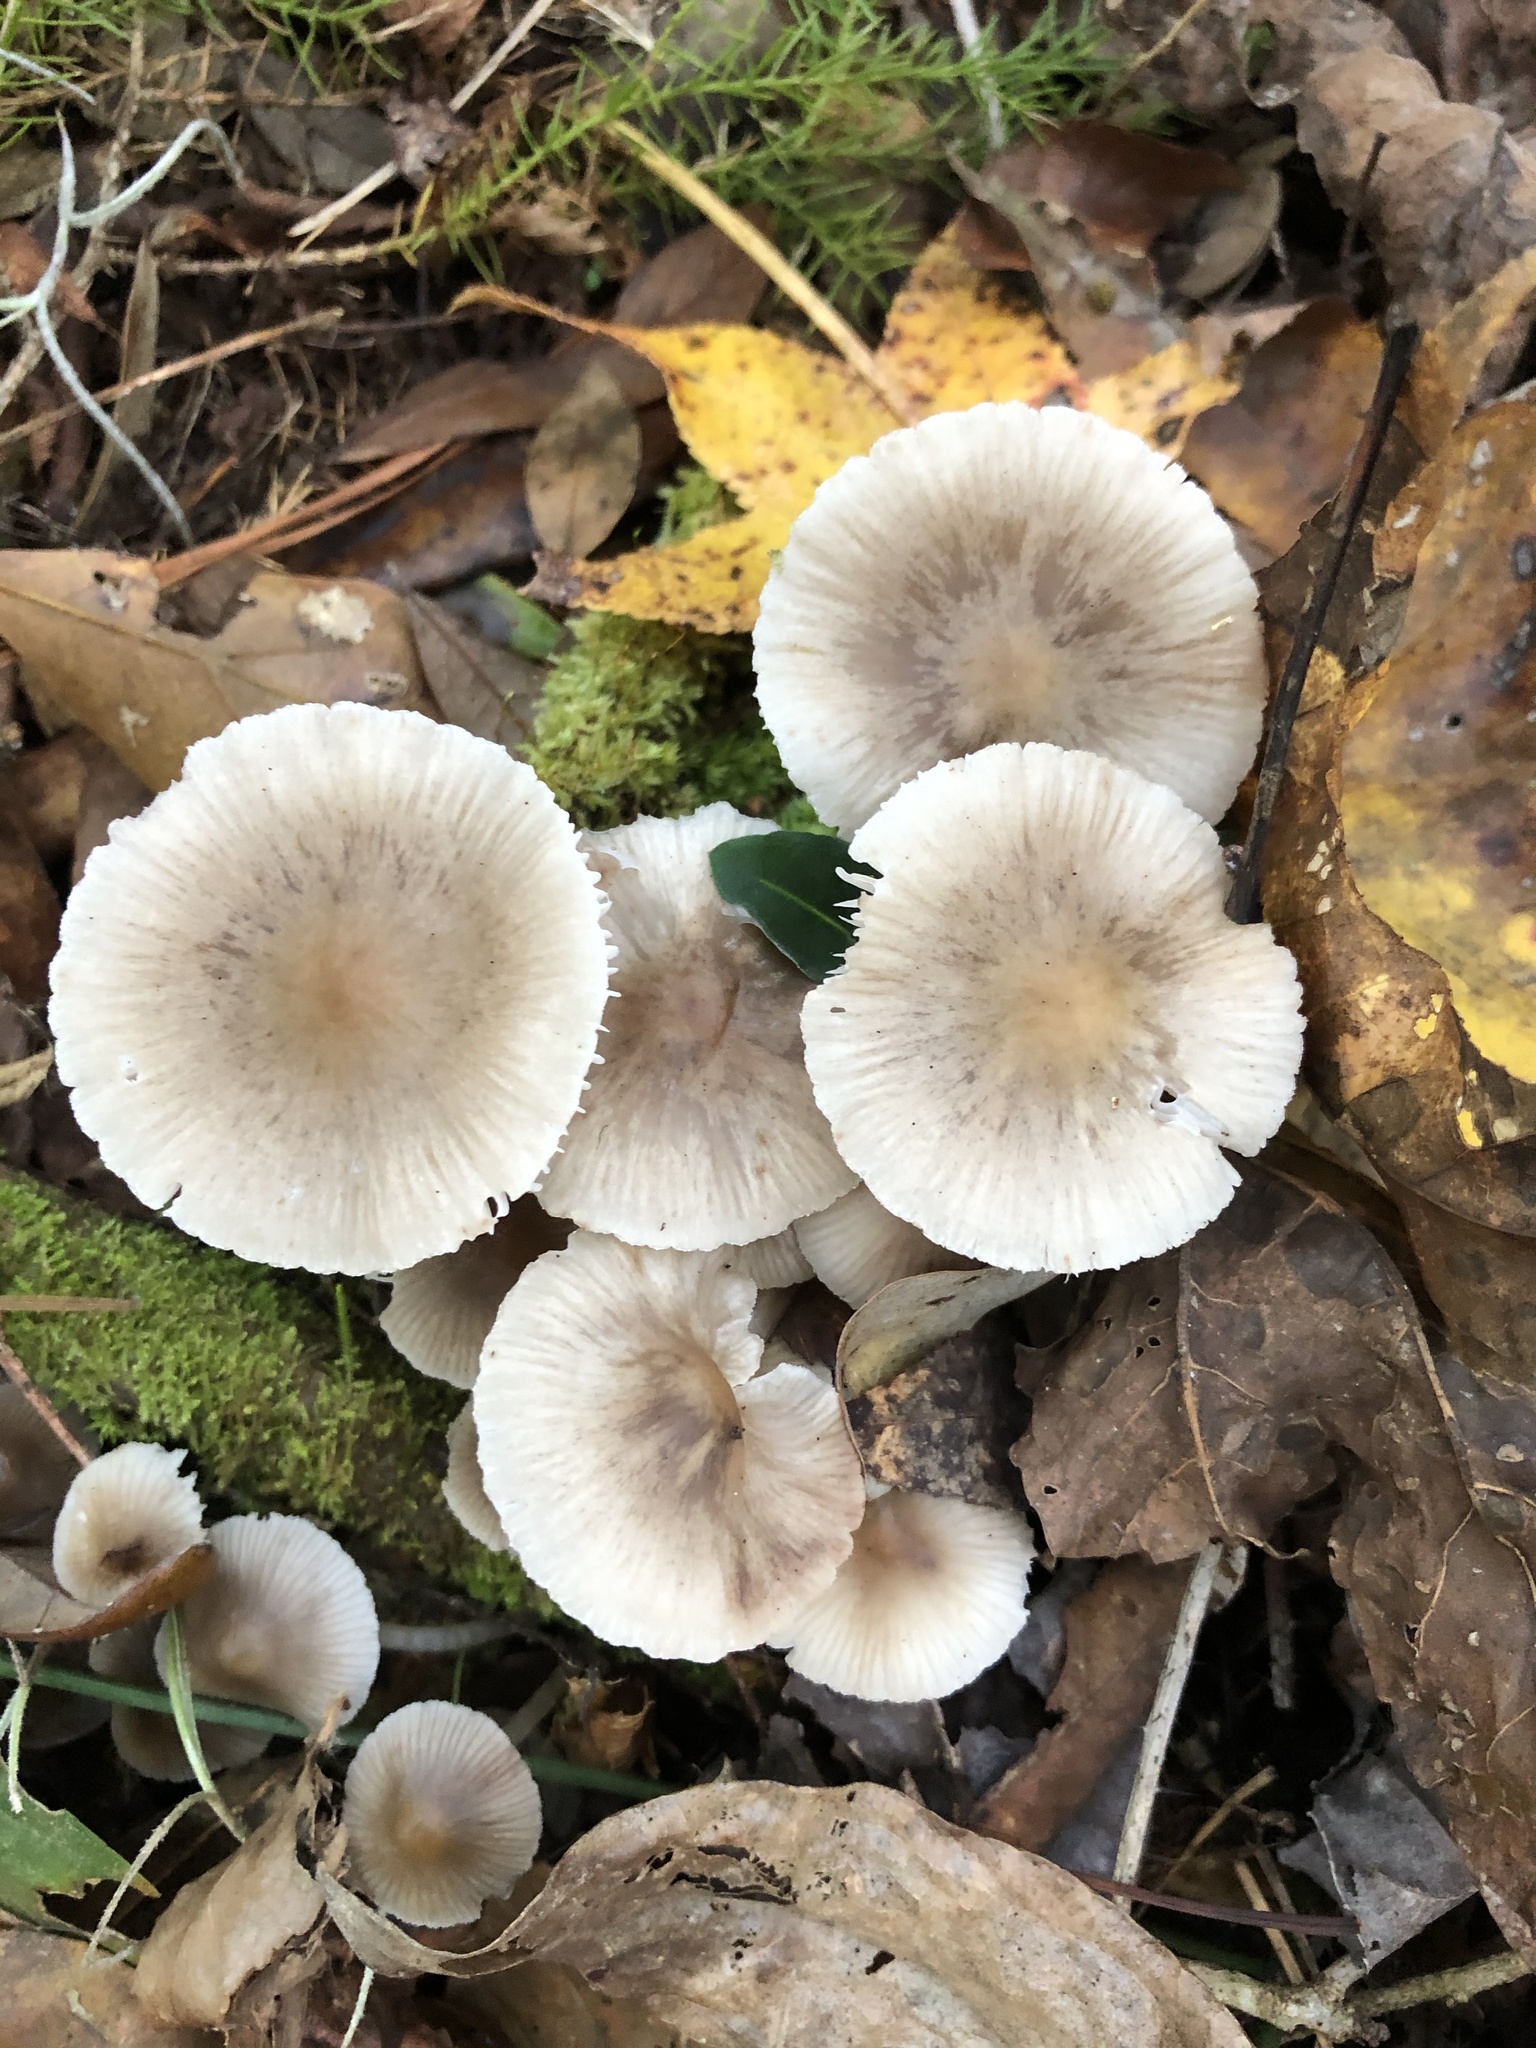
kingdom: Fungi
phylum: Basidiomycota
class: Agaricomycetes
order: Agaricales
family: Mycenaceae
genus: Mycena
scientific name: Mycena galericulata
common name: Bonnet mycena
